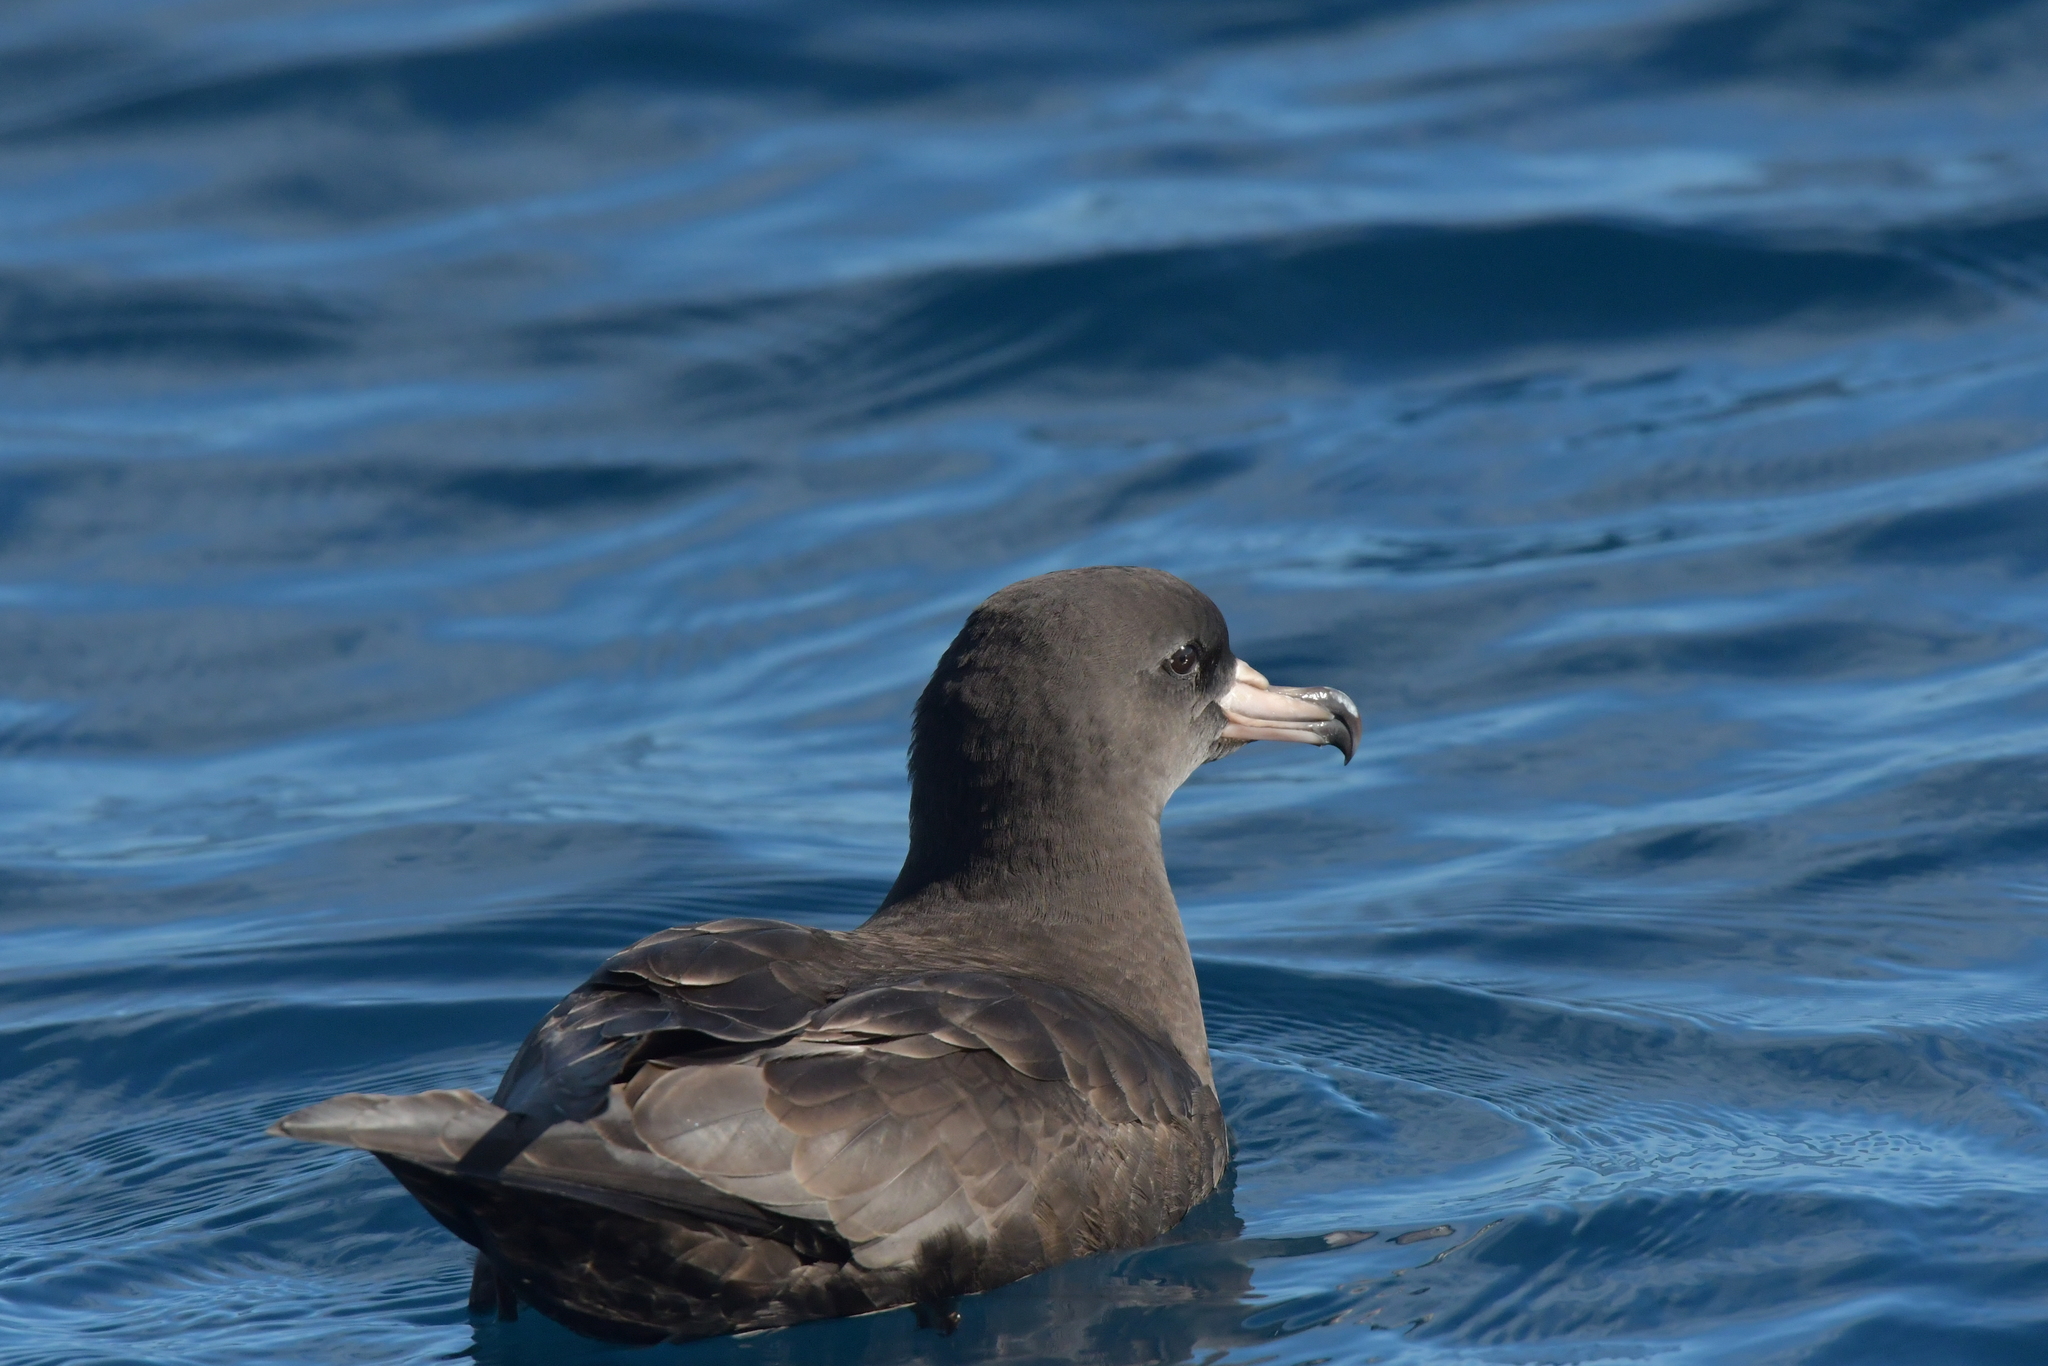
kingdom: Animalia
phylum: Chordata
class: Aves
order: Procellariiformes
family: Procellariidae
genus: Puffinus
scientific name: Puffinus carneipes
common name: Flesh-footed shearwater
